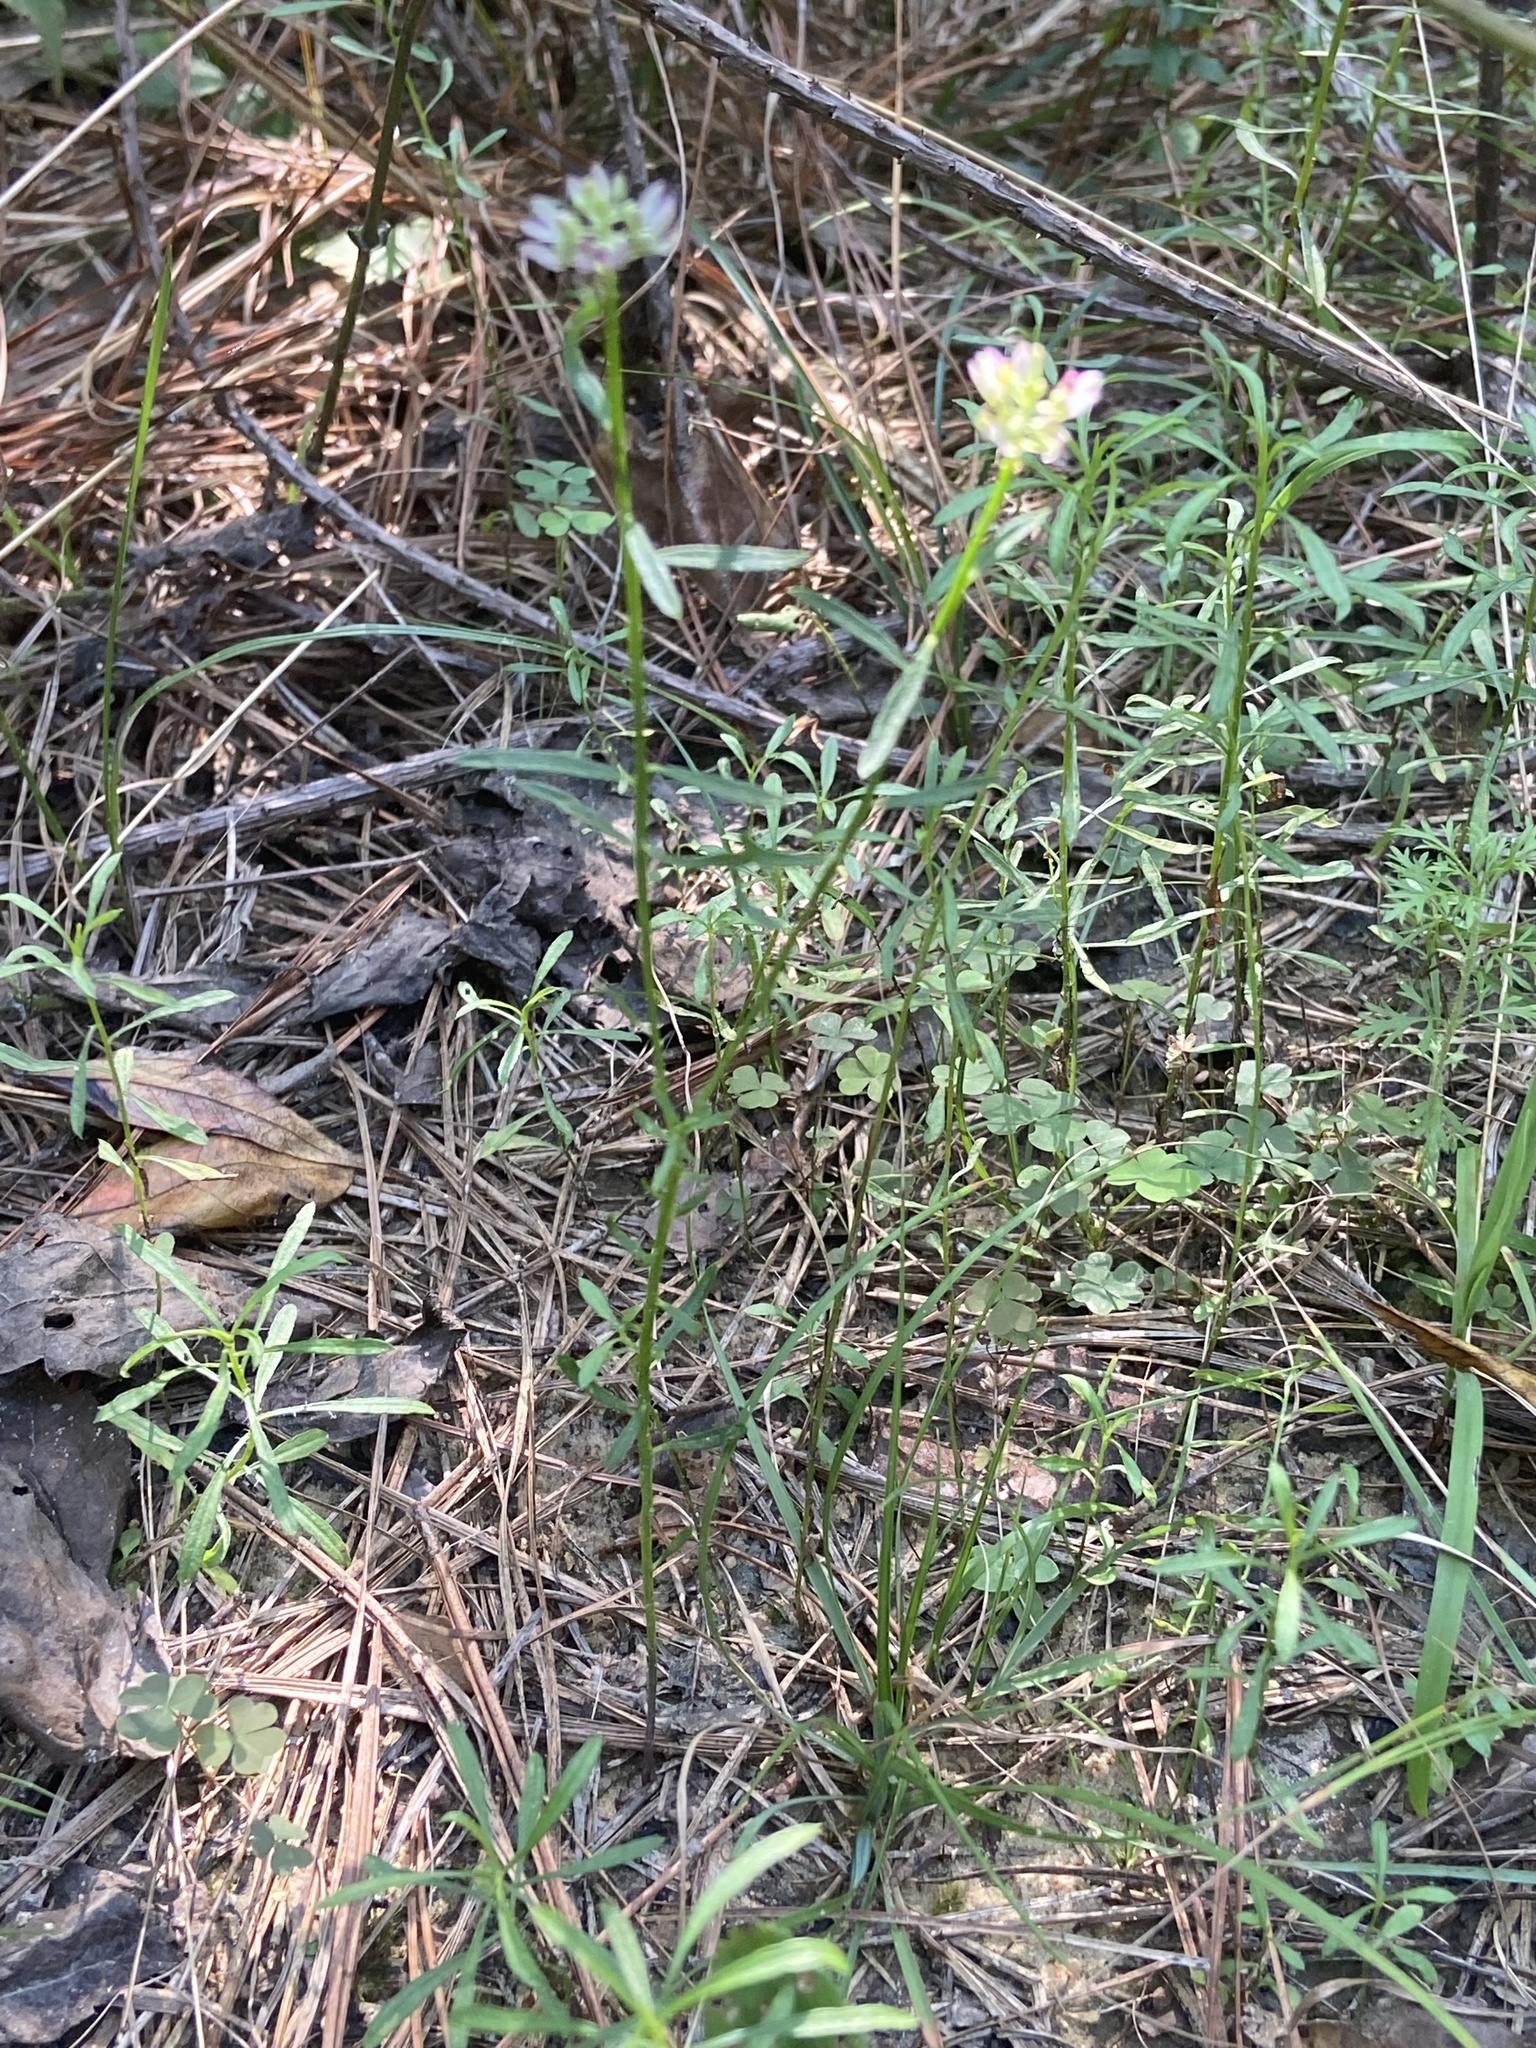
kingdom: Plantae
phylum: Tracheophyta
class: Magnoliopsida
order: Fabales
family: Polygalaceae
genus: Polygala
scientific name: Polygala curtissii
